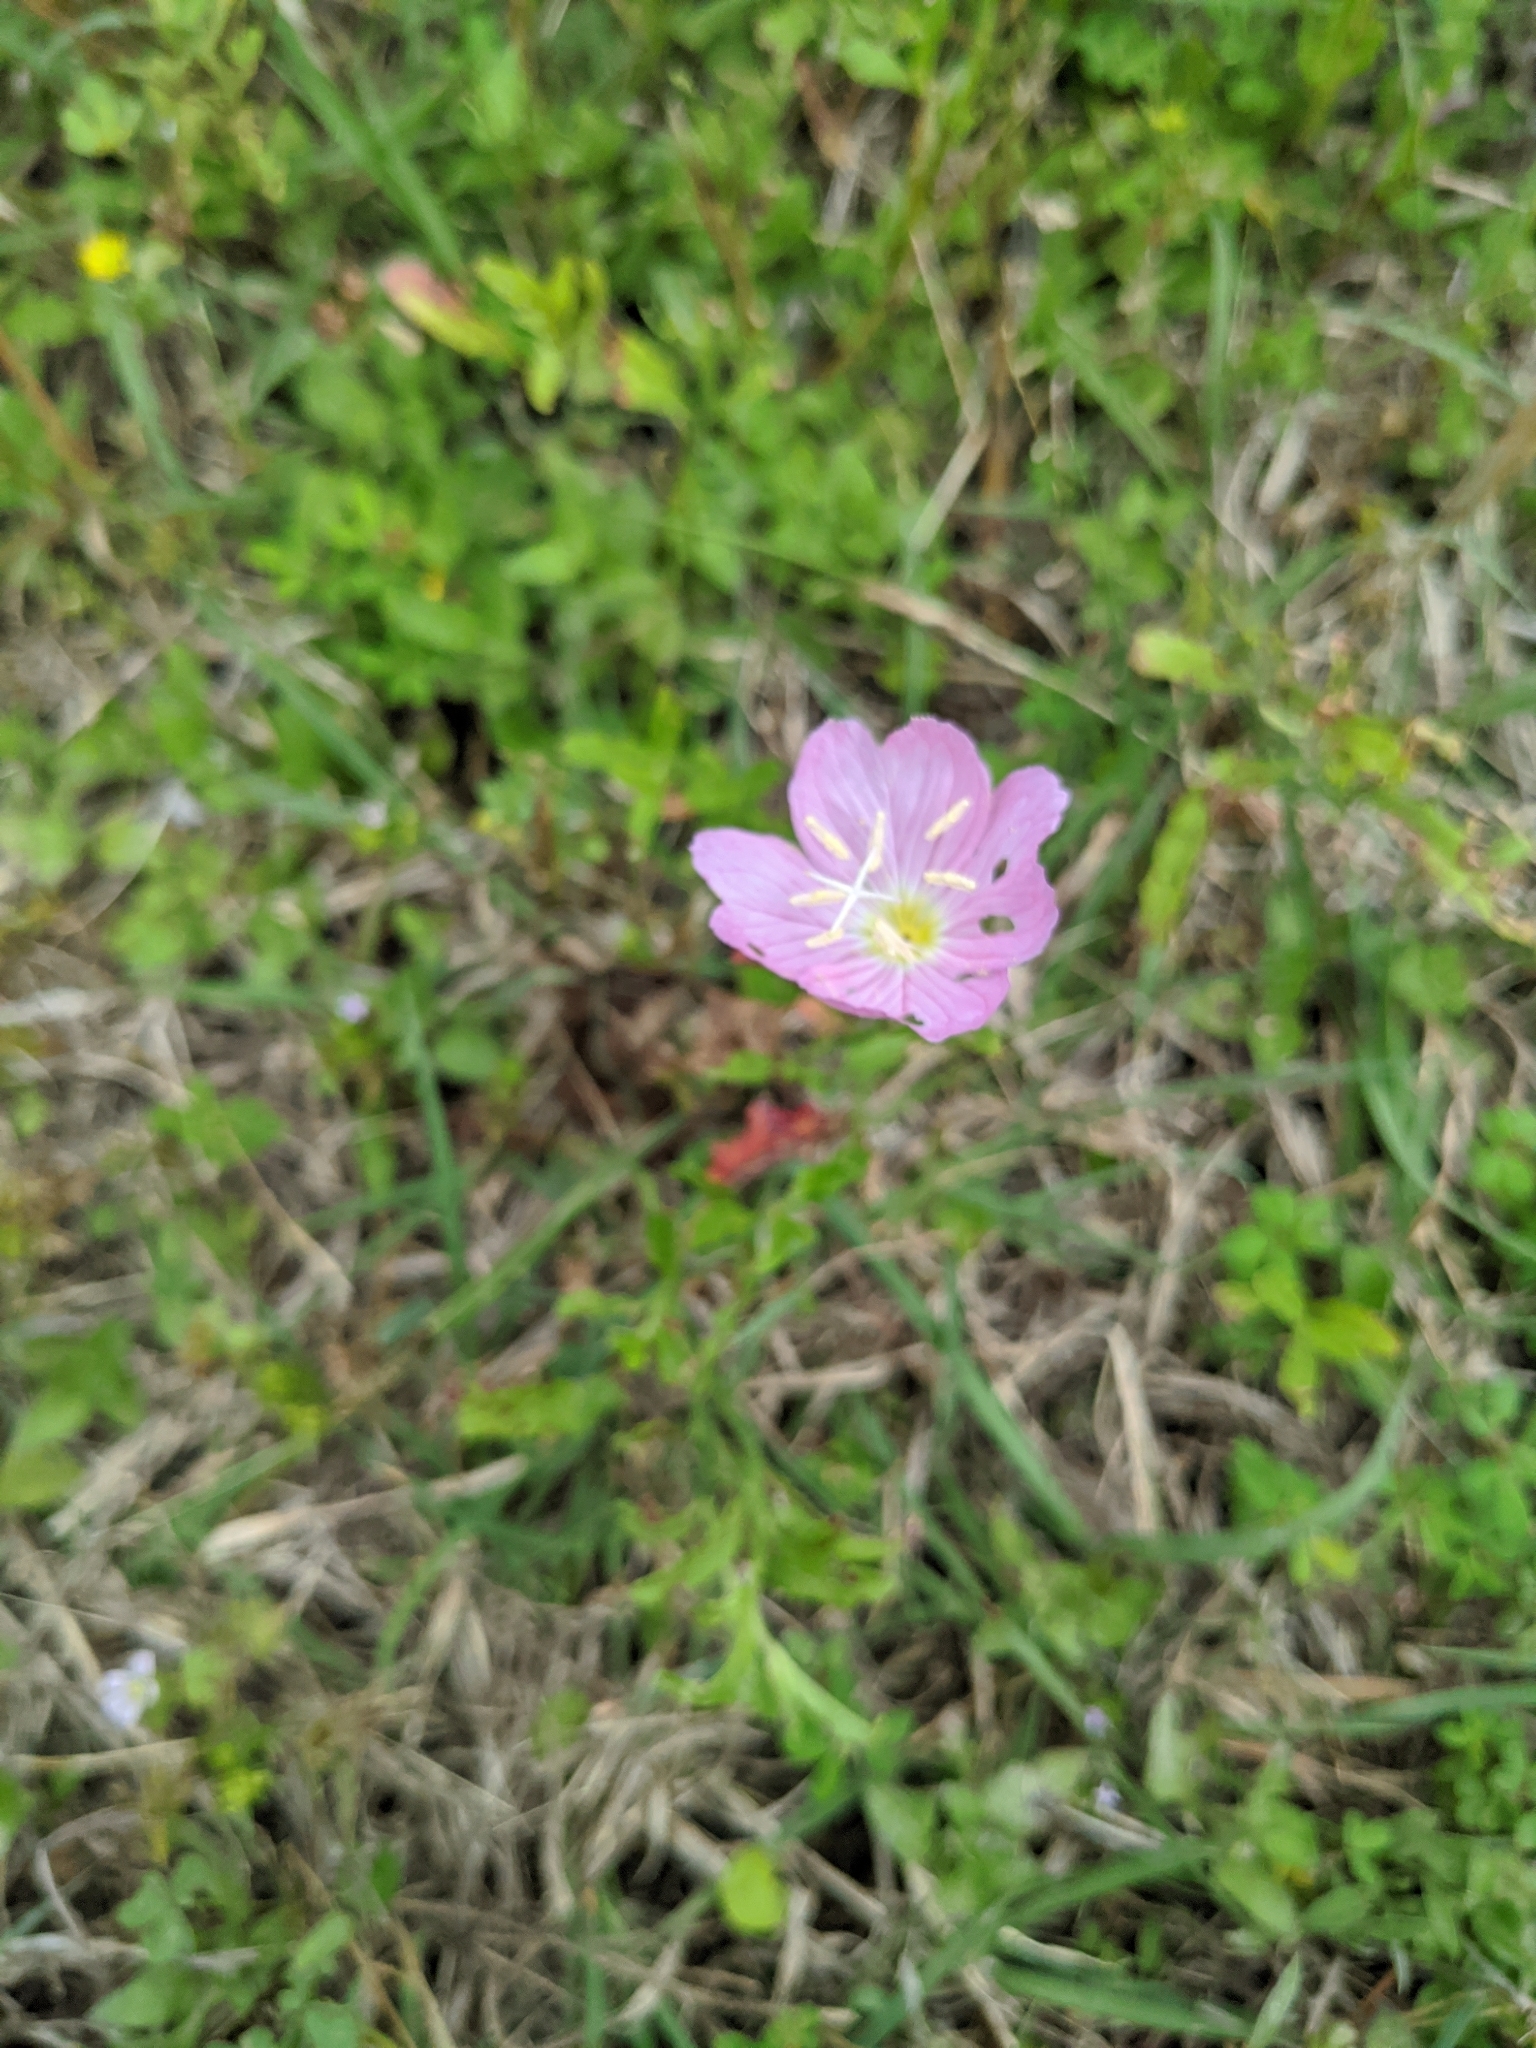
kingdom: Plantae
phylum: Tracheophyta
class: Magnoliopsida
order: Myrtales
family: Onagraceae
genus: Oenothera
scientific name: Oenothera speciosa
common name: White evening-primrose
